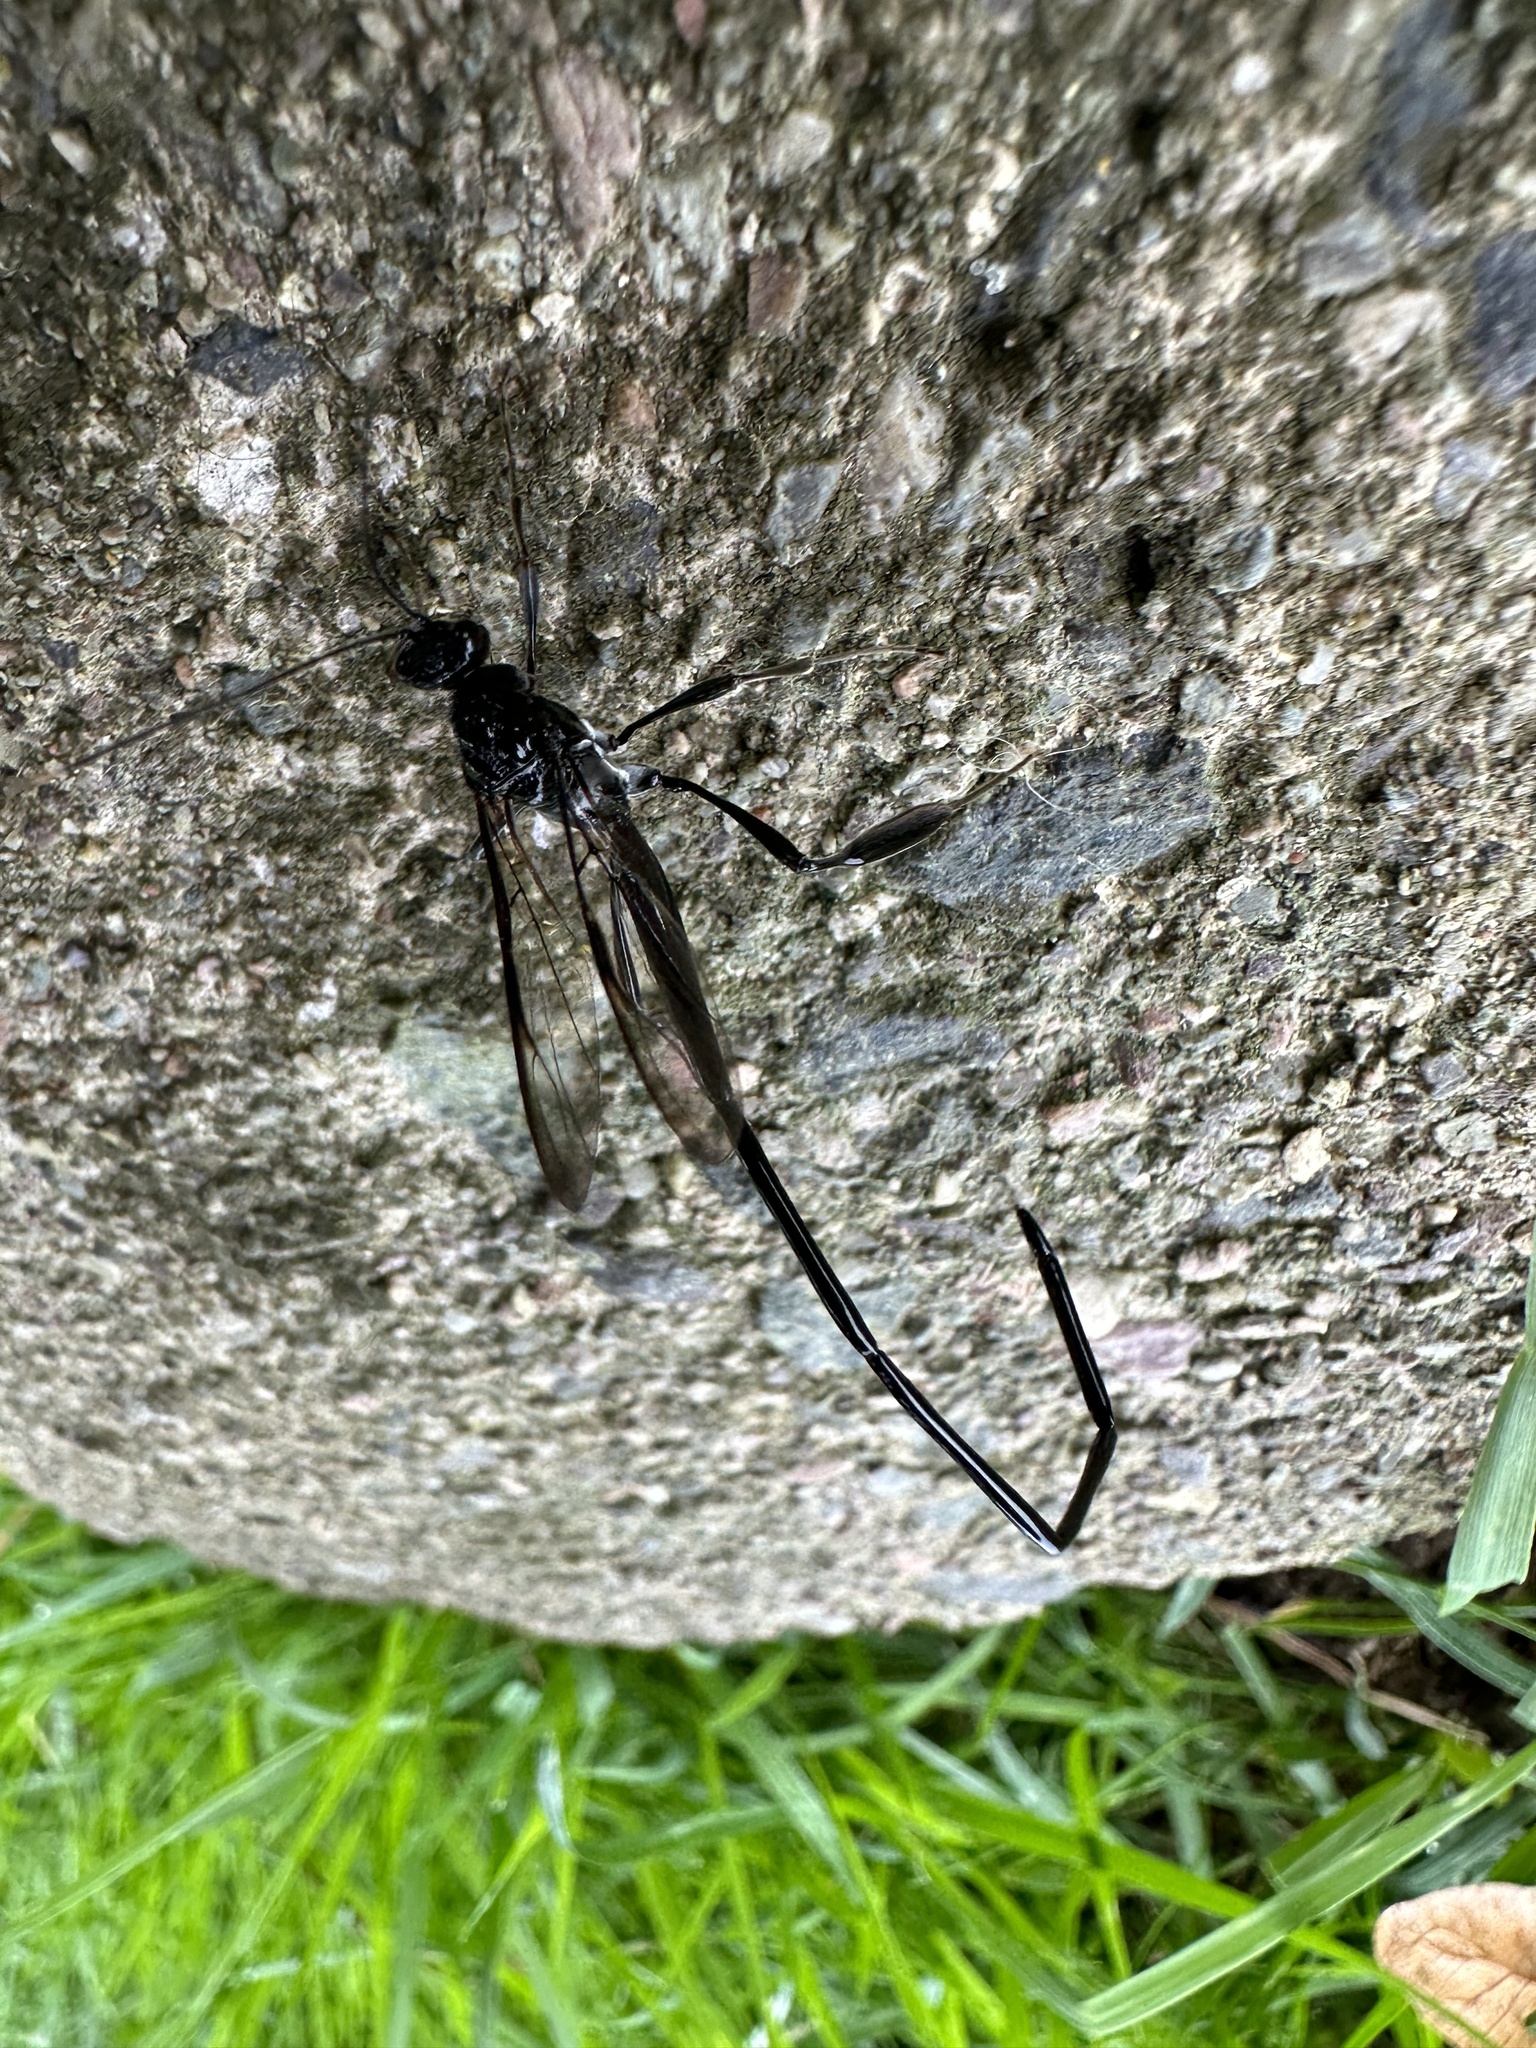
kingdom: Animalia
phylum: Arthropoda
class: Insecta
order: Hymenoptera
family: Pelecinidae
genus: Pelecinus
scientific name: Pelecinus polyturator
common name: American pelecinid wasp
